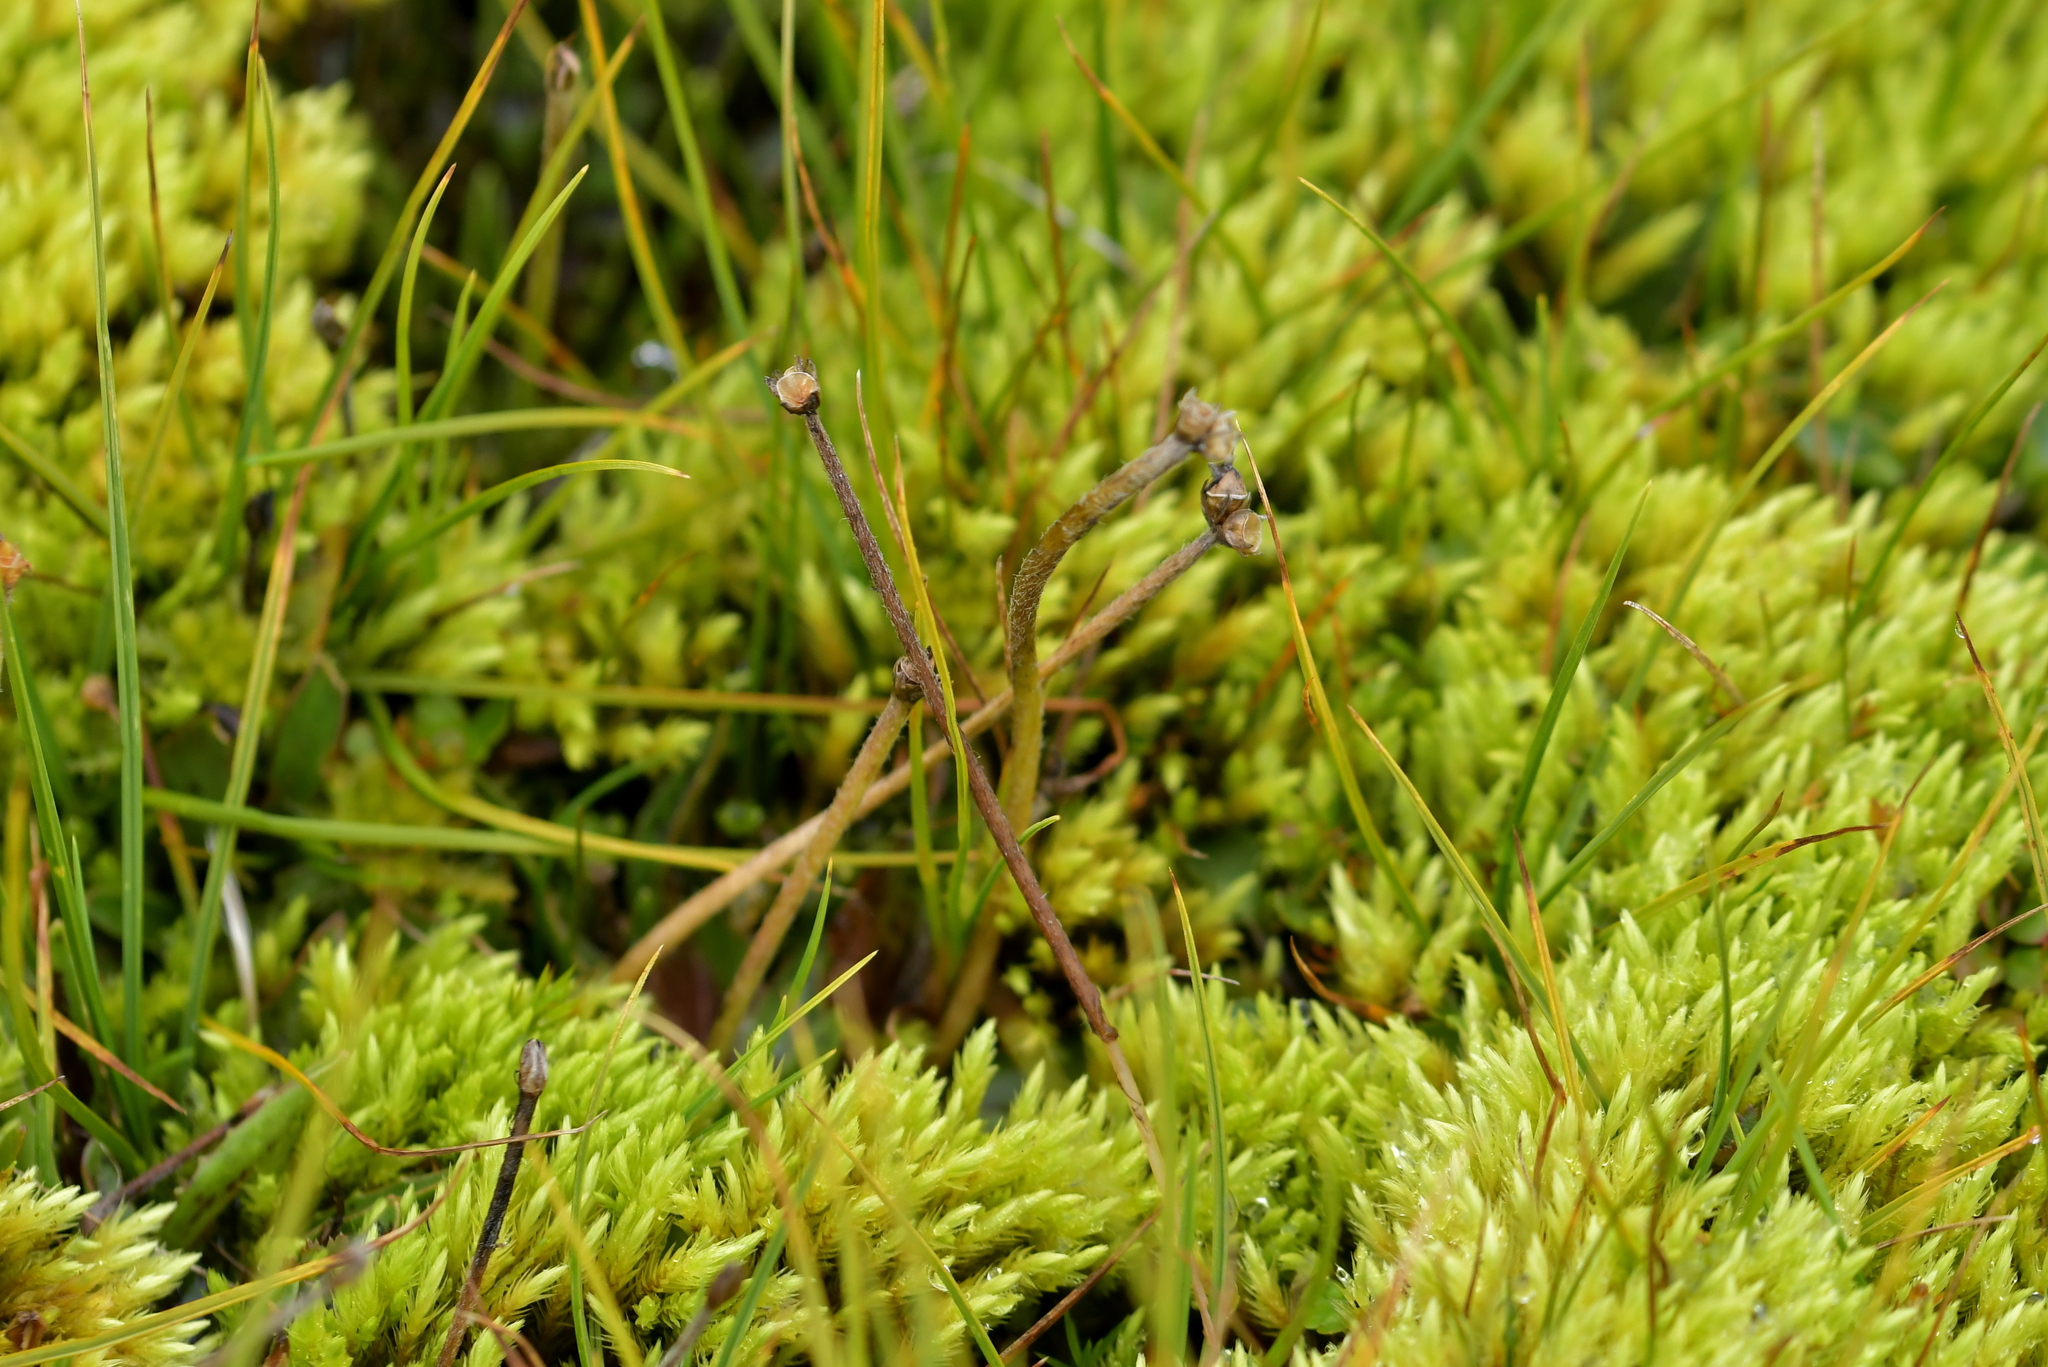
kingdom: Plantae
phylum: Tracheophyta
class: Magnoliopsida
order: Lamiales
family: Plantaginaceae
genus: Plantago
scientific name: Plantago unibracteata
